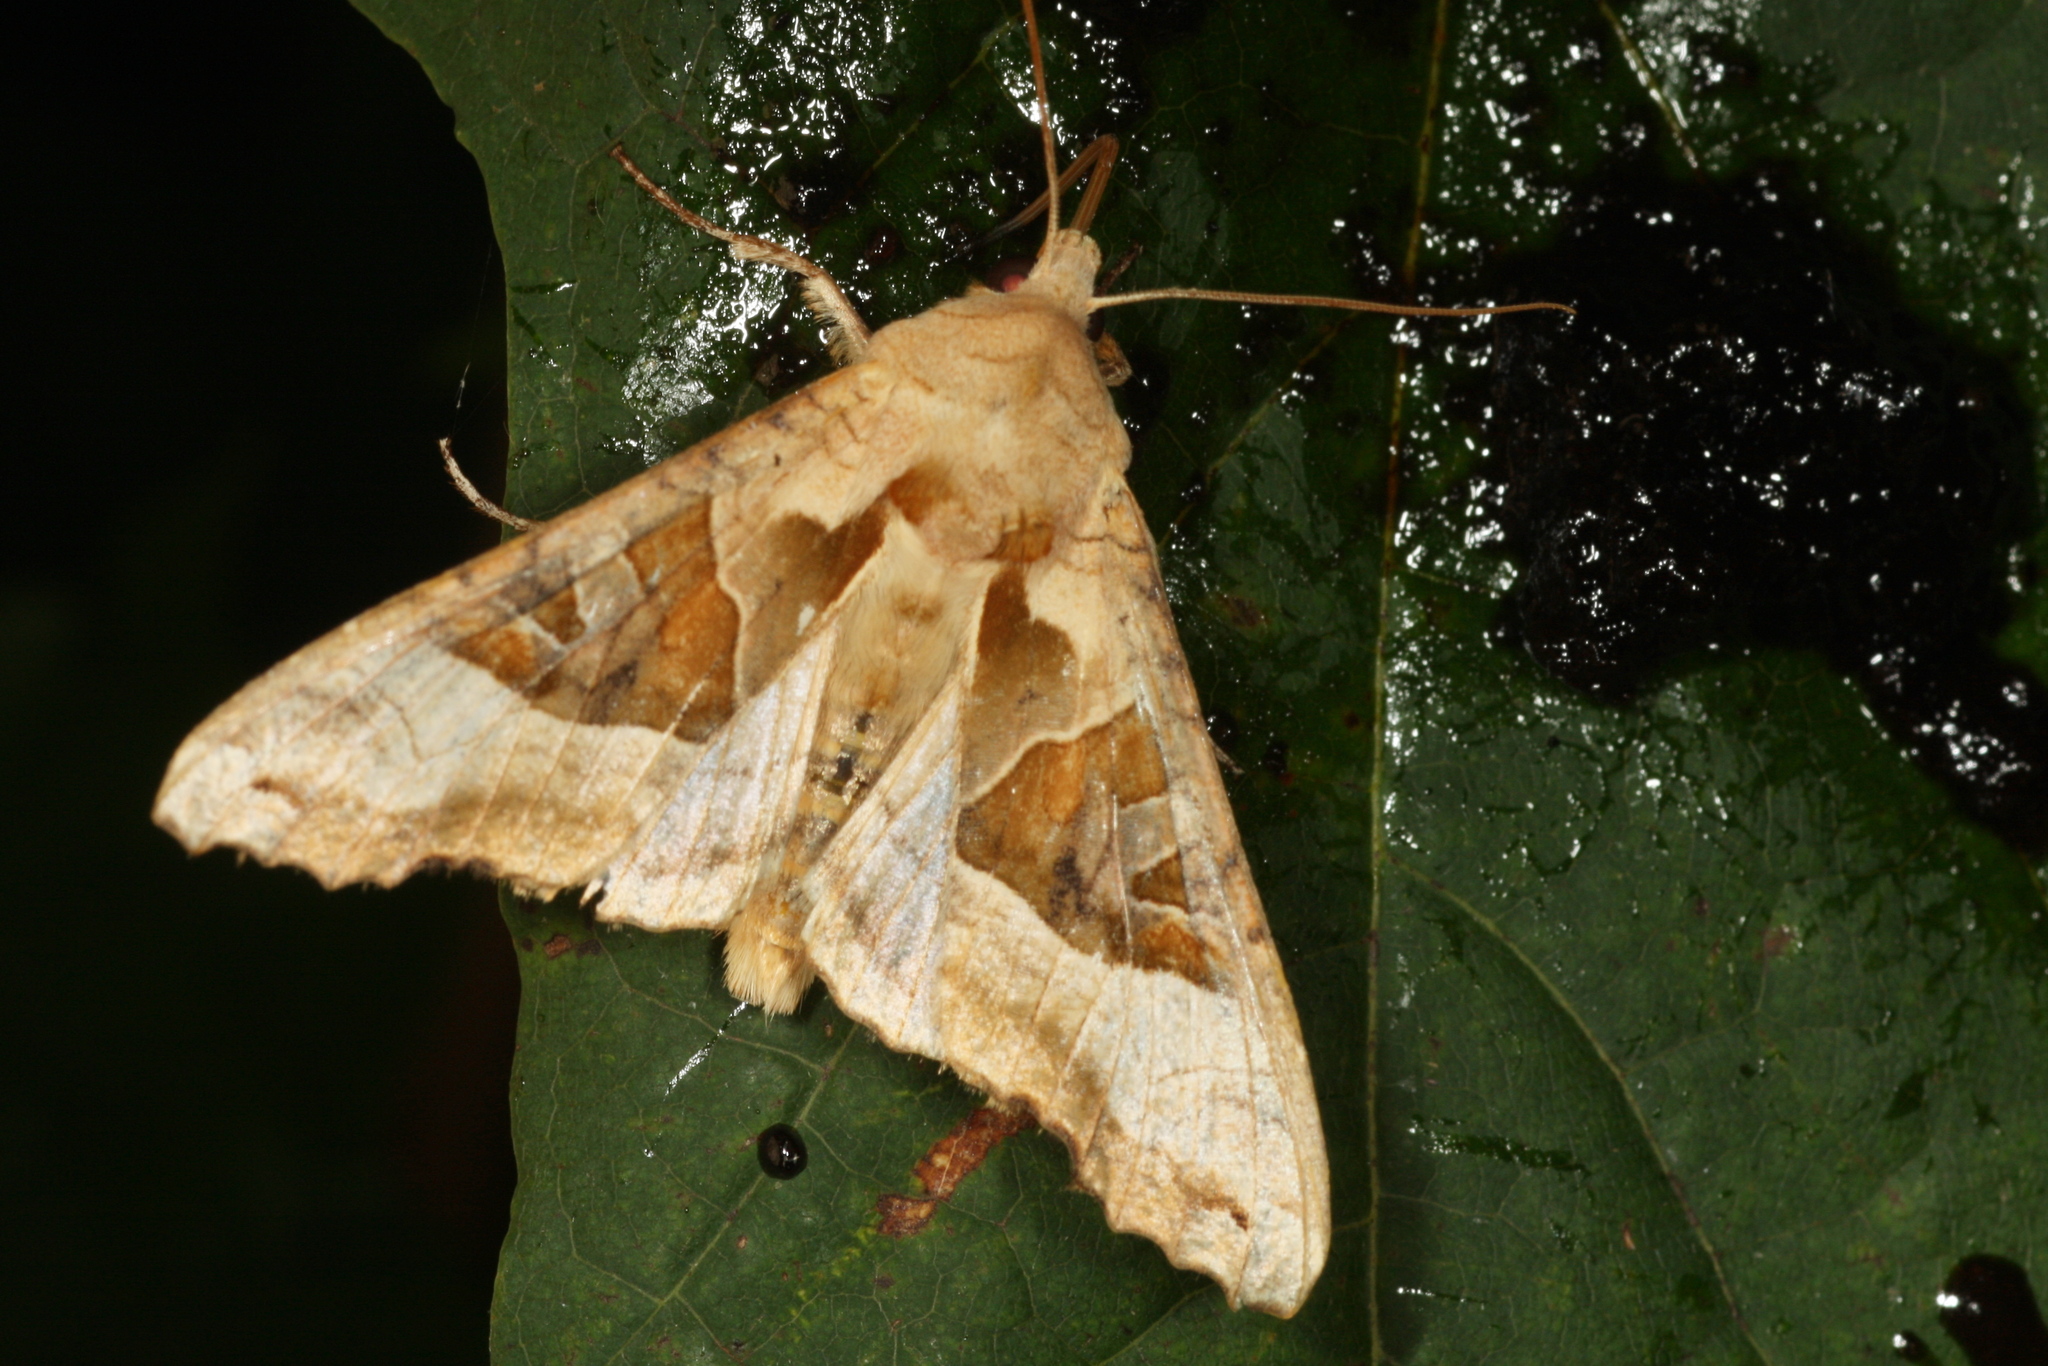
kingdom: Animalia
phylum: Arthropoda
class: Insecta
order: Lepidoptera
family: Noctuidae
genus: Phlogophora
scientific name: Phlogophora meticulosa
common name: Angle shades
